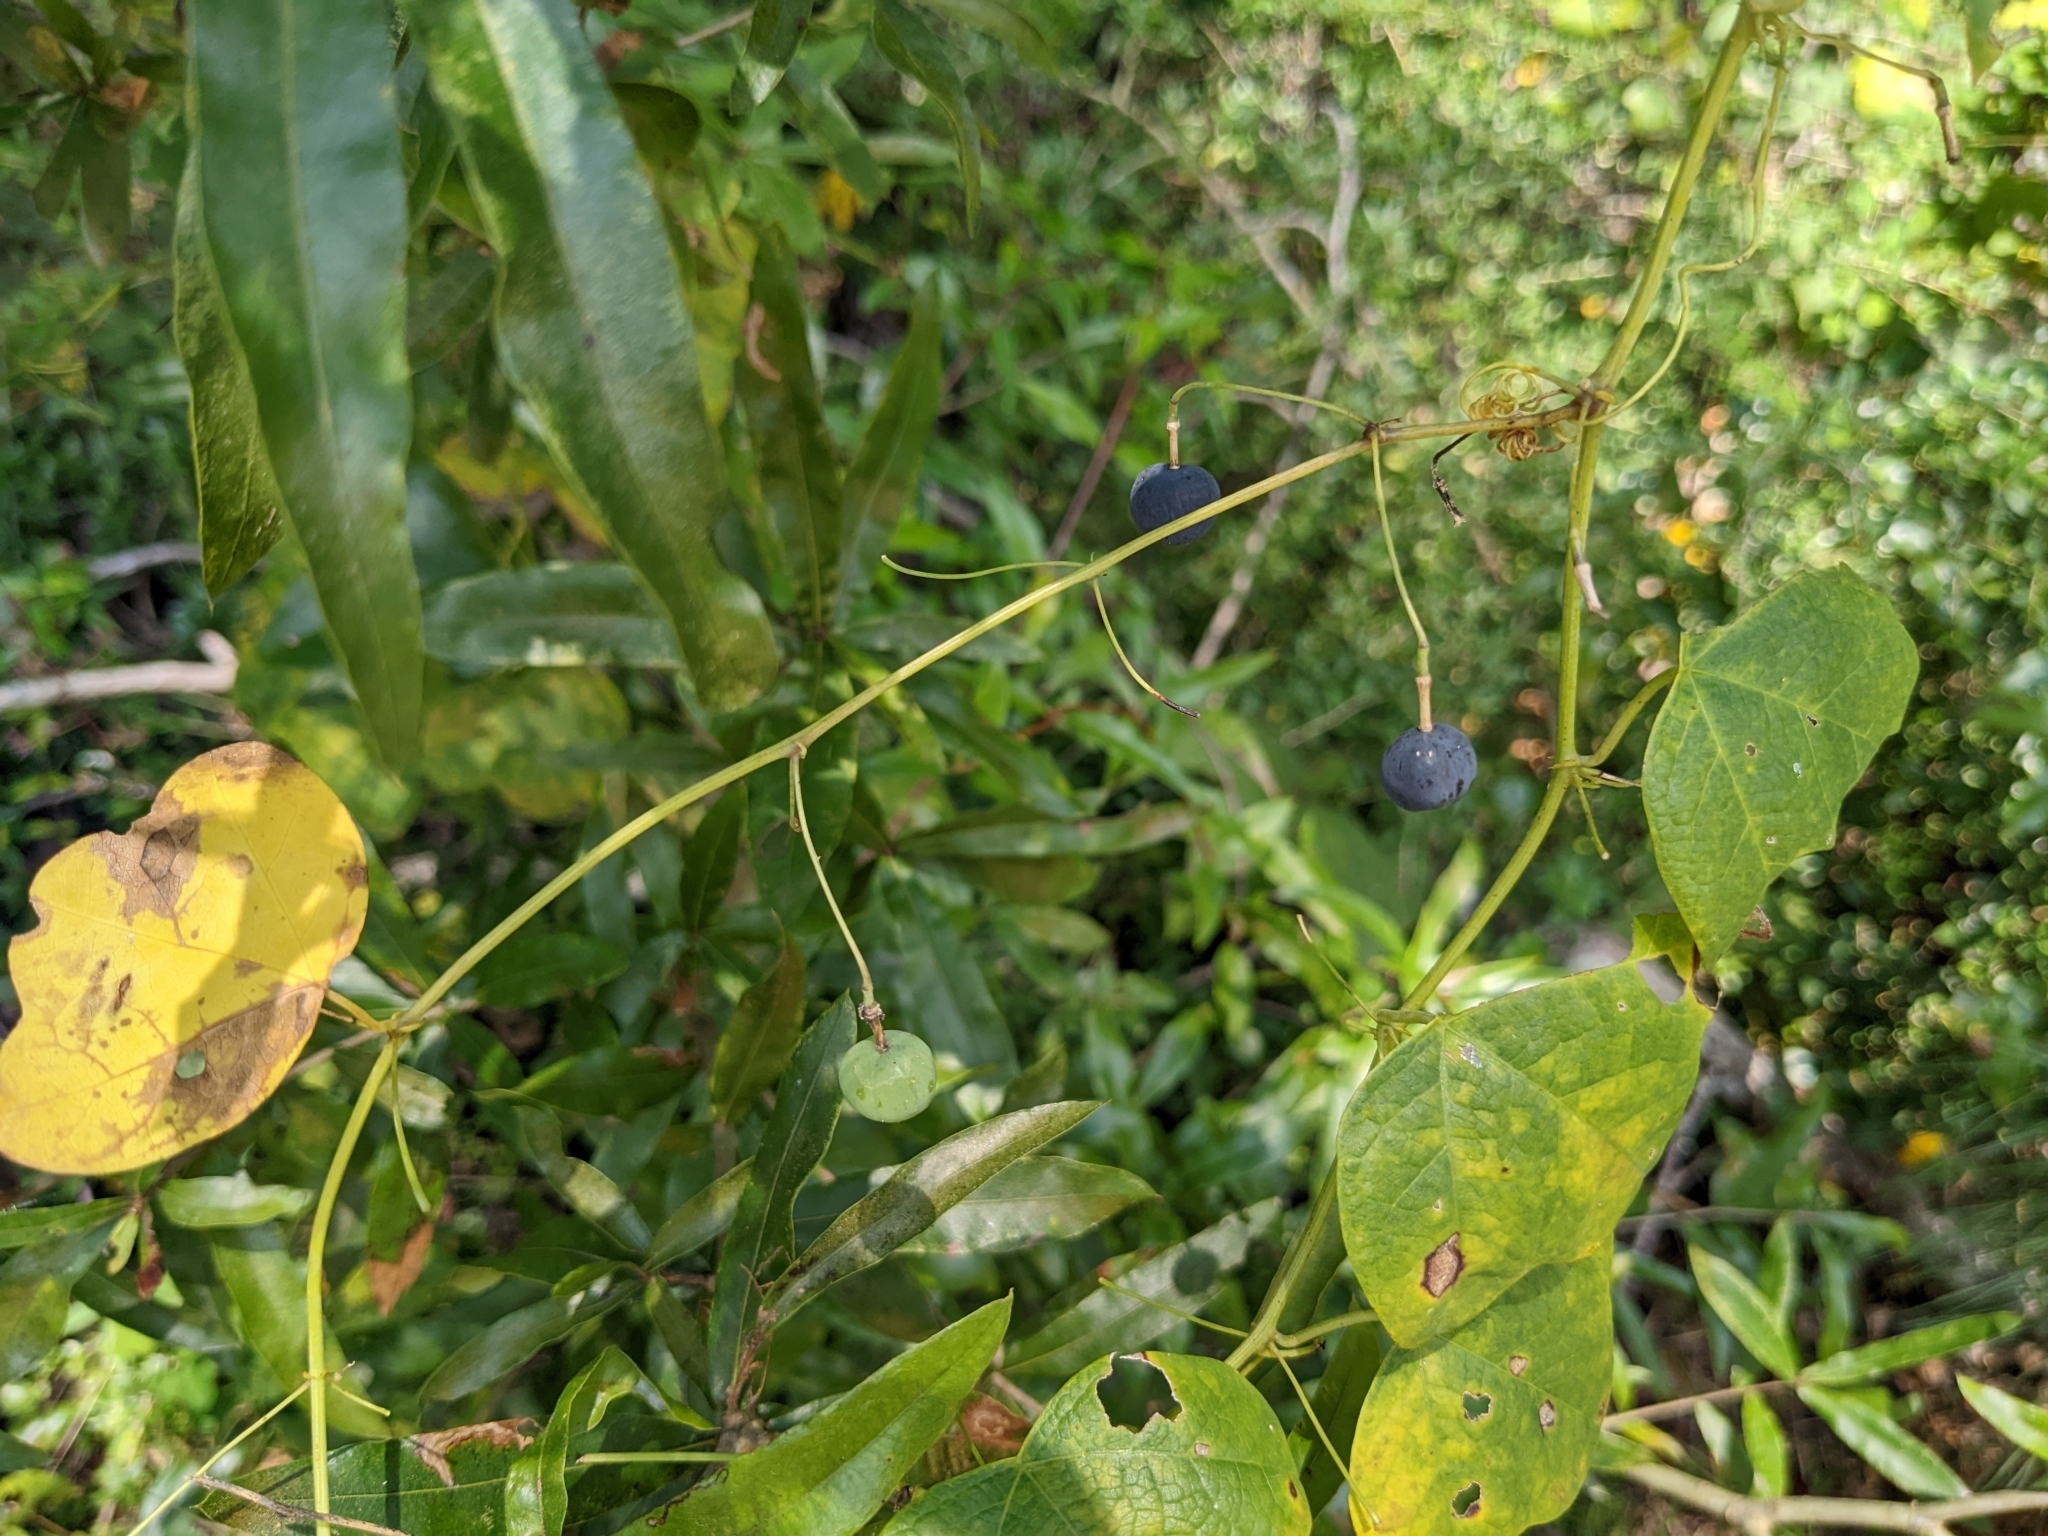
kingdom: Animalia
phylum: Arthropoda
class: Insecta
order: Lepidoptera
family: Nymphalidae
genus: Dione
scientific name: Dione vanillae
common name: Gulf fritillary
